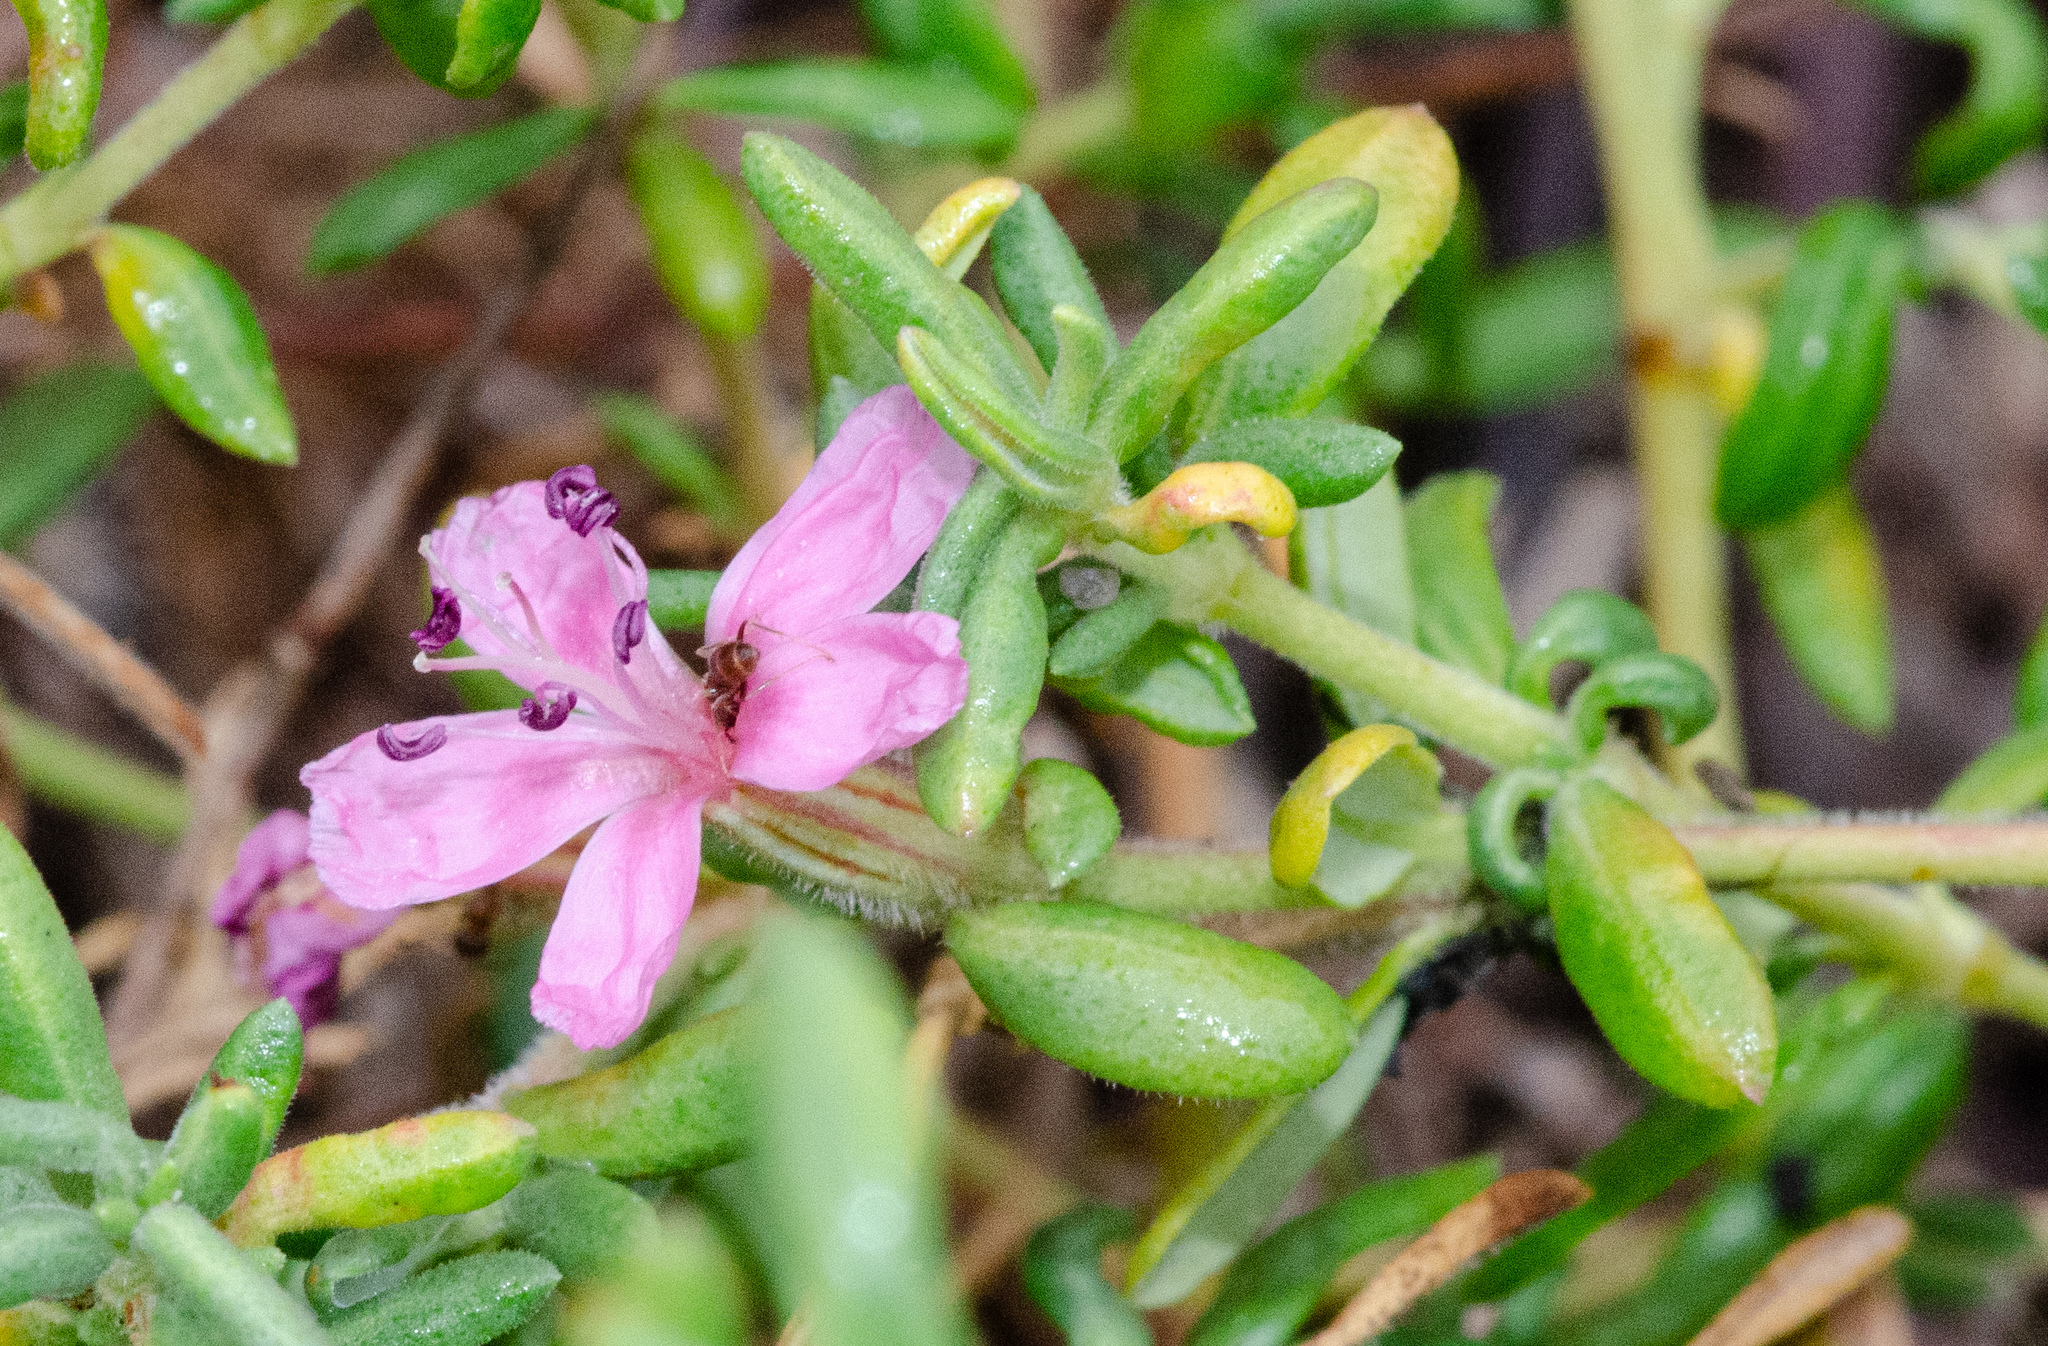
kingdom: Plantae
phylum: Tracheophyta
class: Magnoliopsida
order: Caryophyllales
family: Frankeniaceae
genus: Frankenia
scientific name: Frankenia salina
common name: Alkali seaheath
